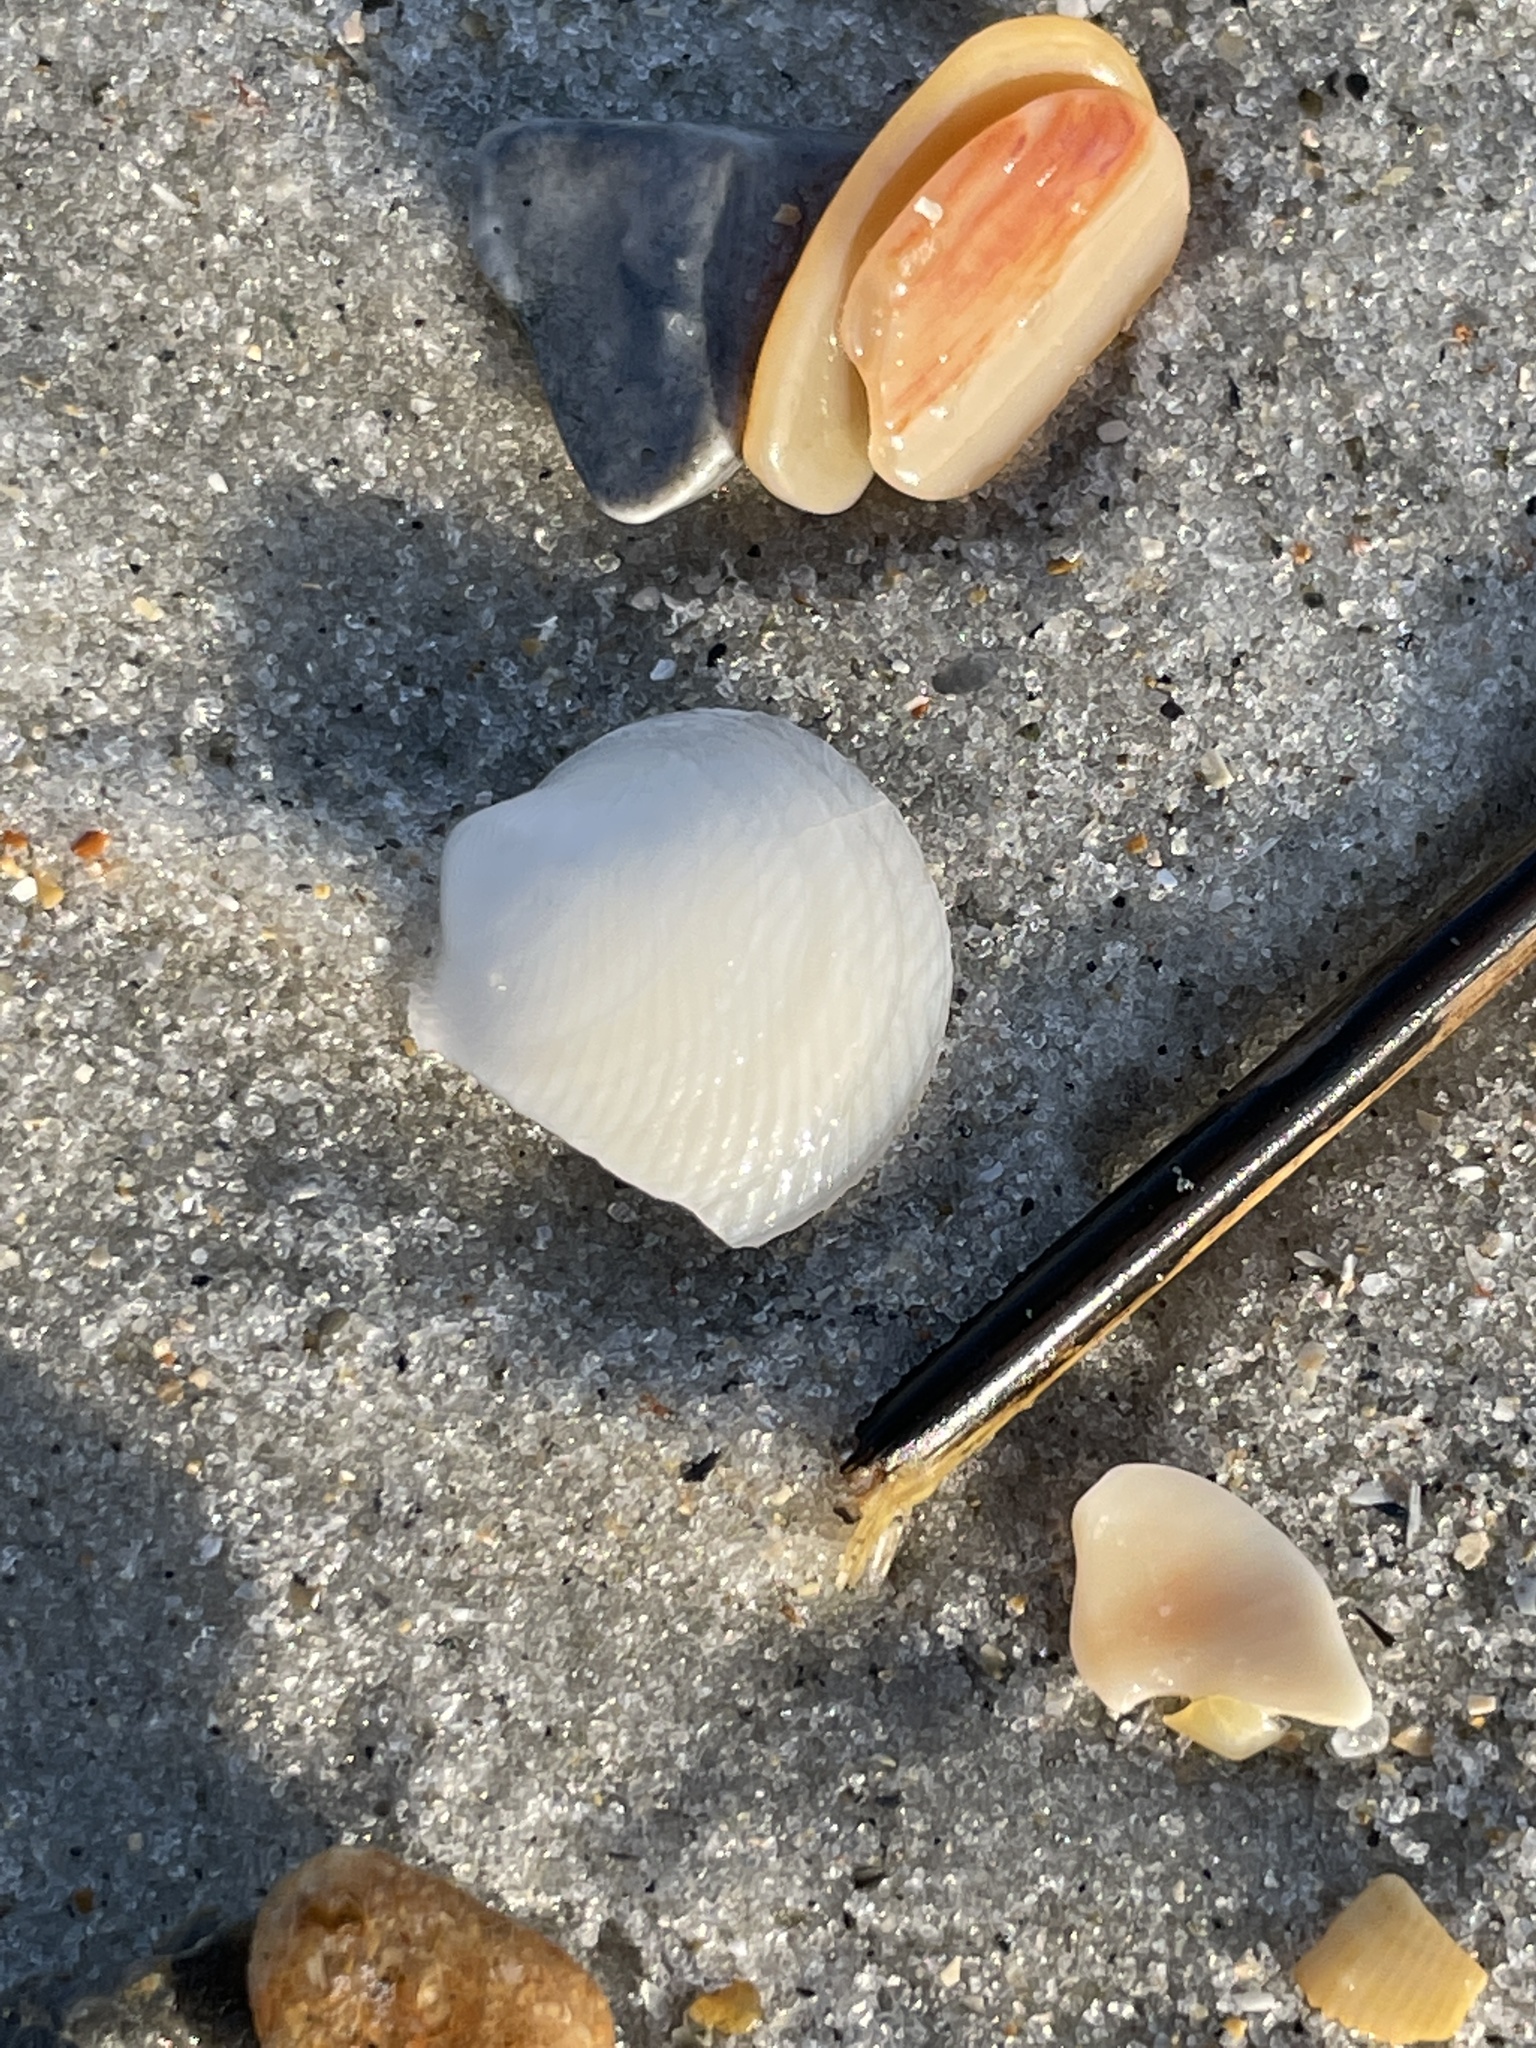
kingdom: Animalia
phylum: Mollusca
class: Bivalvia
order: Lucinida
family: Lucinidae
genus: Divalinga
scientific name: Divalinga quadrisulcata
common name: Cross-hatched lucine
